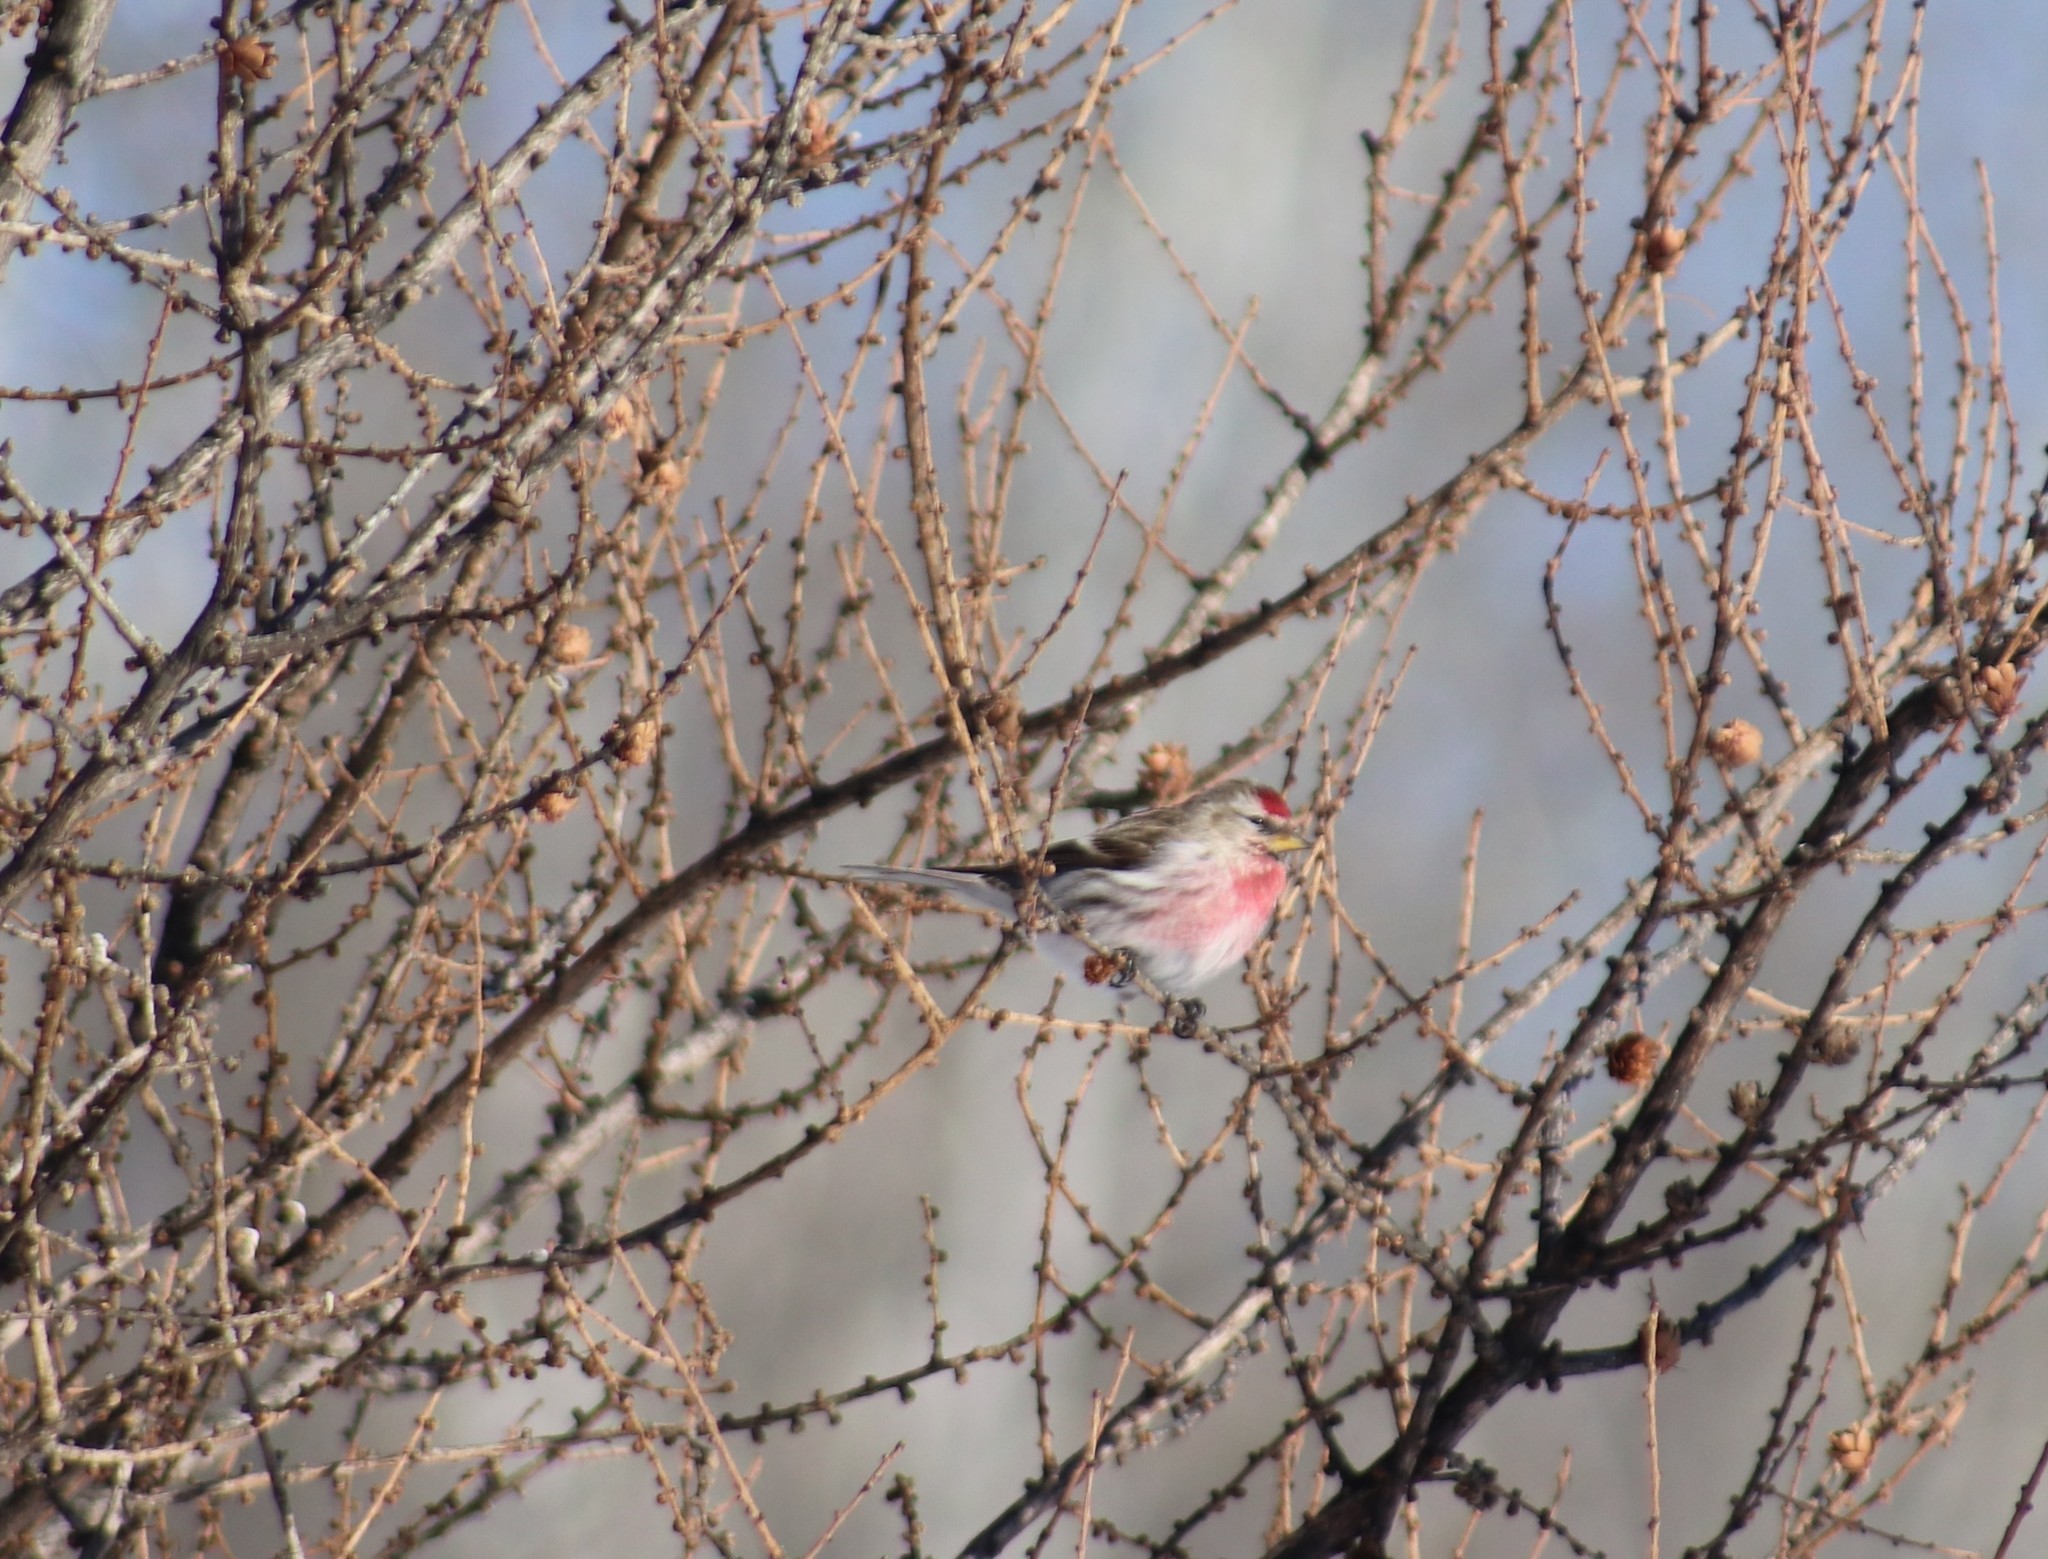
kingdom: Animalia
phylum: Chordata
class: Aves
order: Passeriformes
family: Fringillidae
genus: Acanthis
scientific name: Acanthis flammea
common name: Common redpoll
